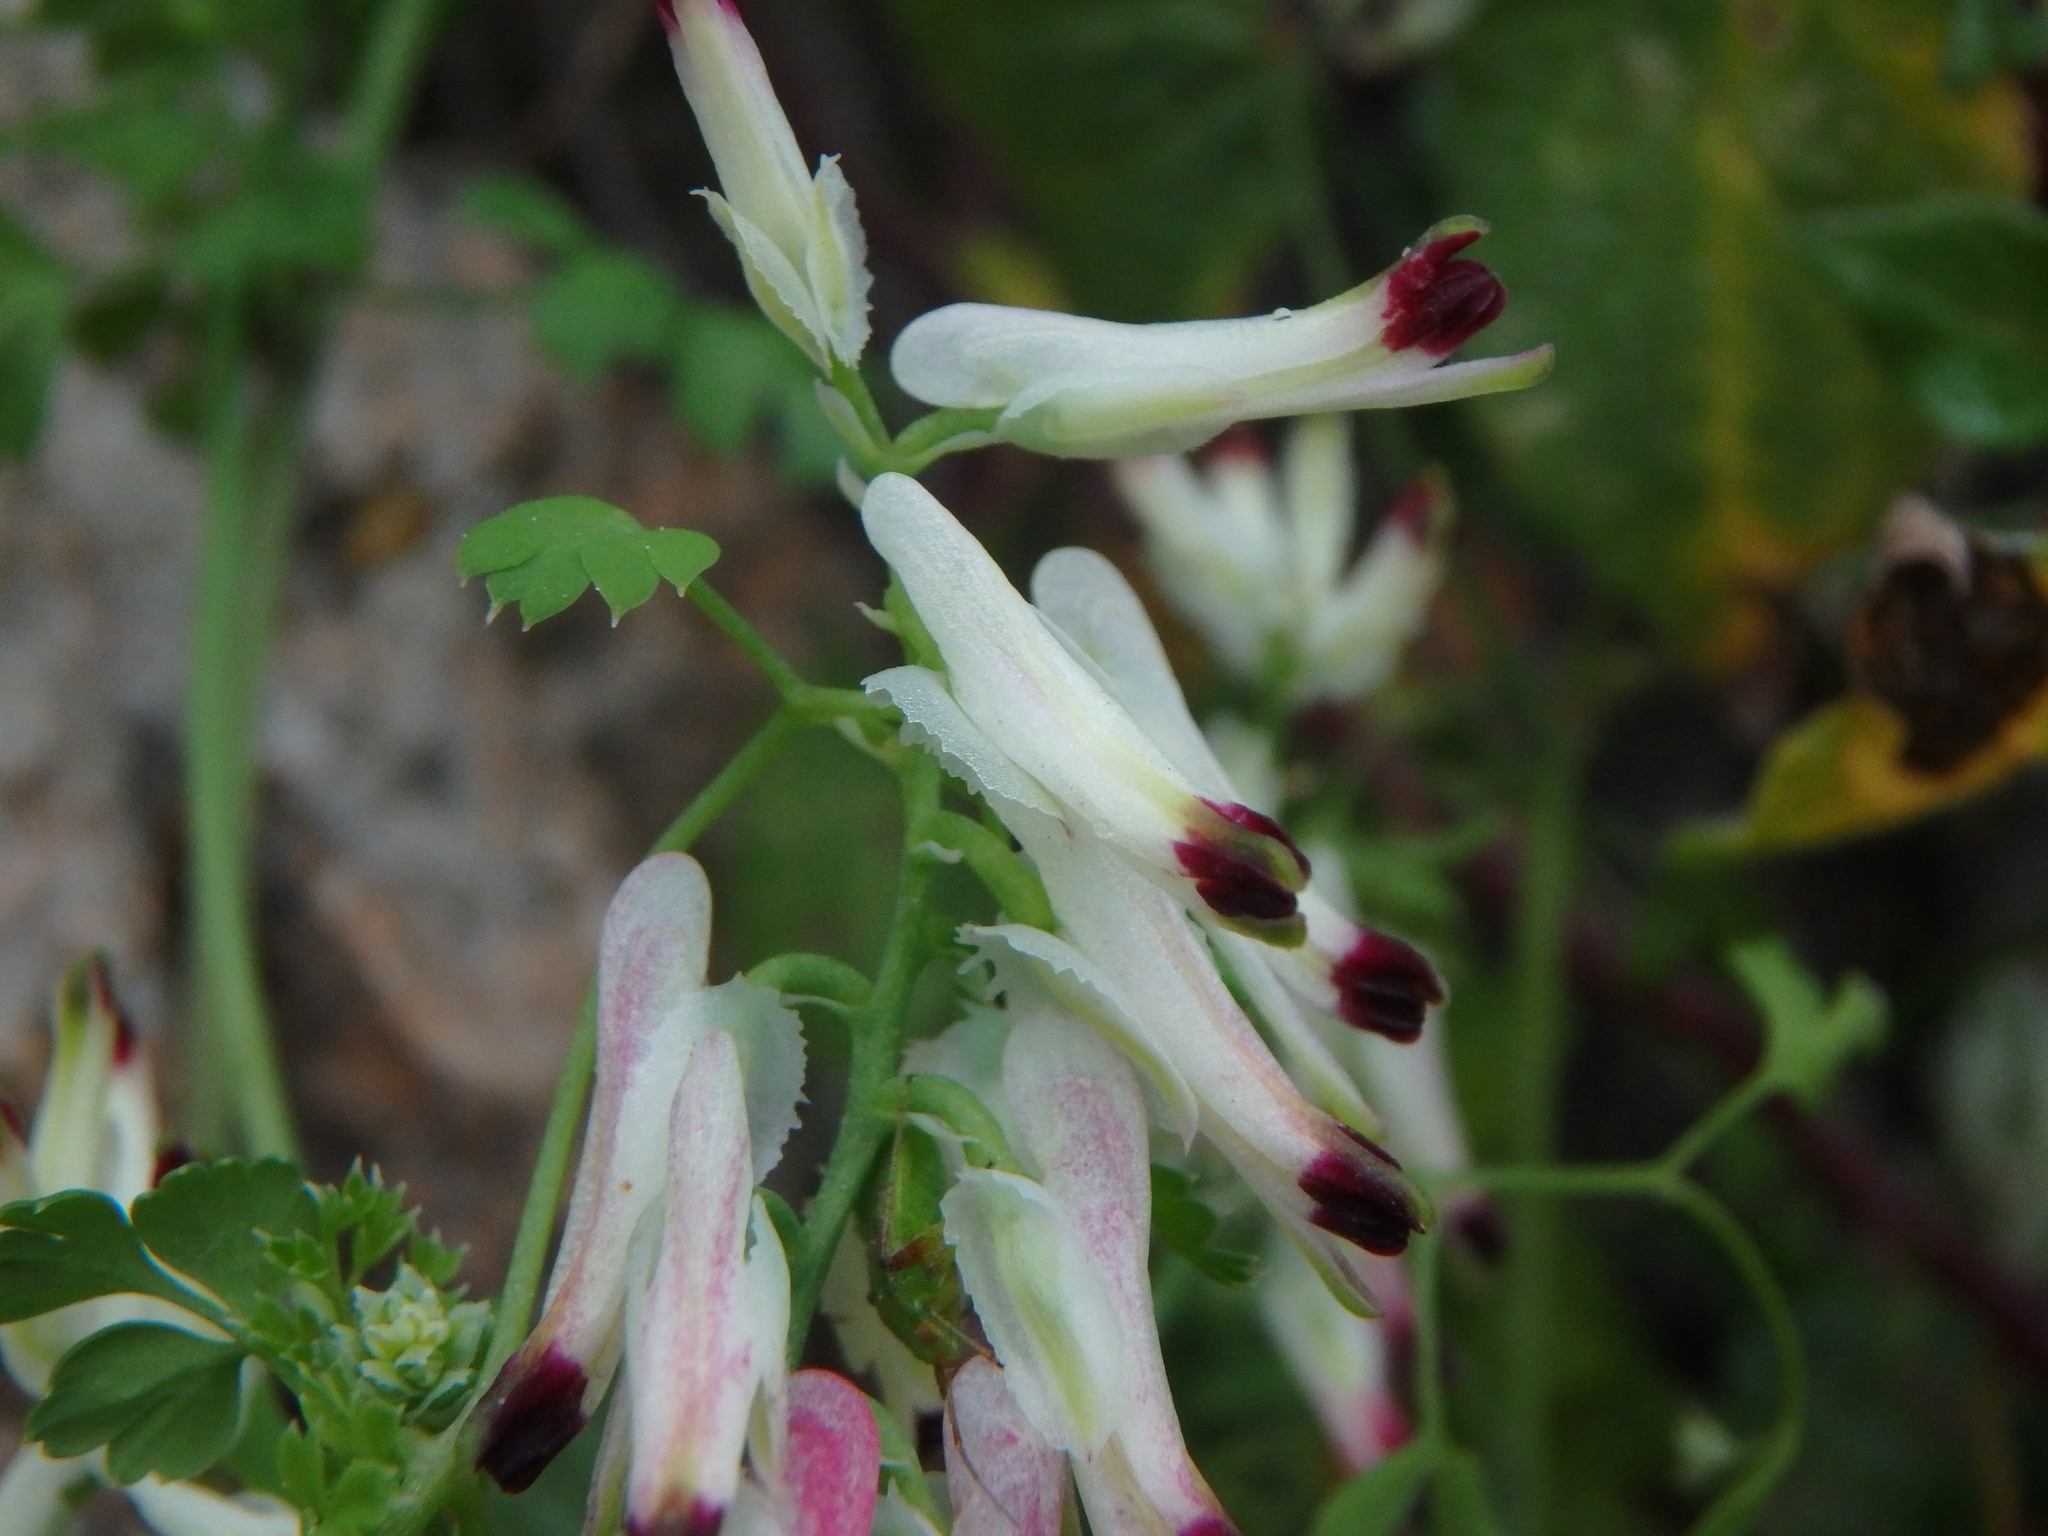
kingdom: Plantae
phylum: Tracheophyta
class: Magnoliopsida
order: Ranunculales
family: Papaveraceae
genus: Fumaria
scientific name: Fumaria capreolata
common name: White ramping-fumitory
